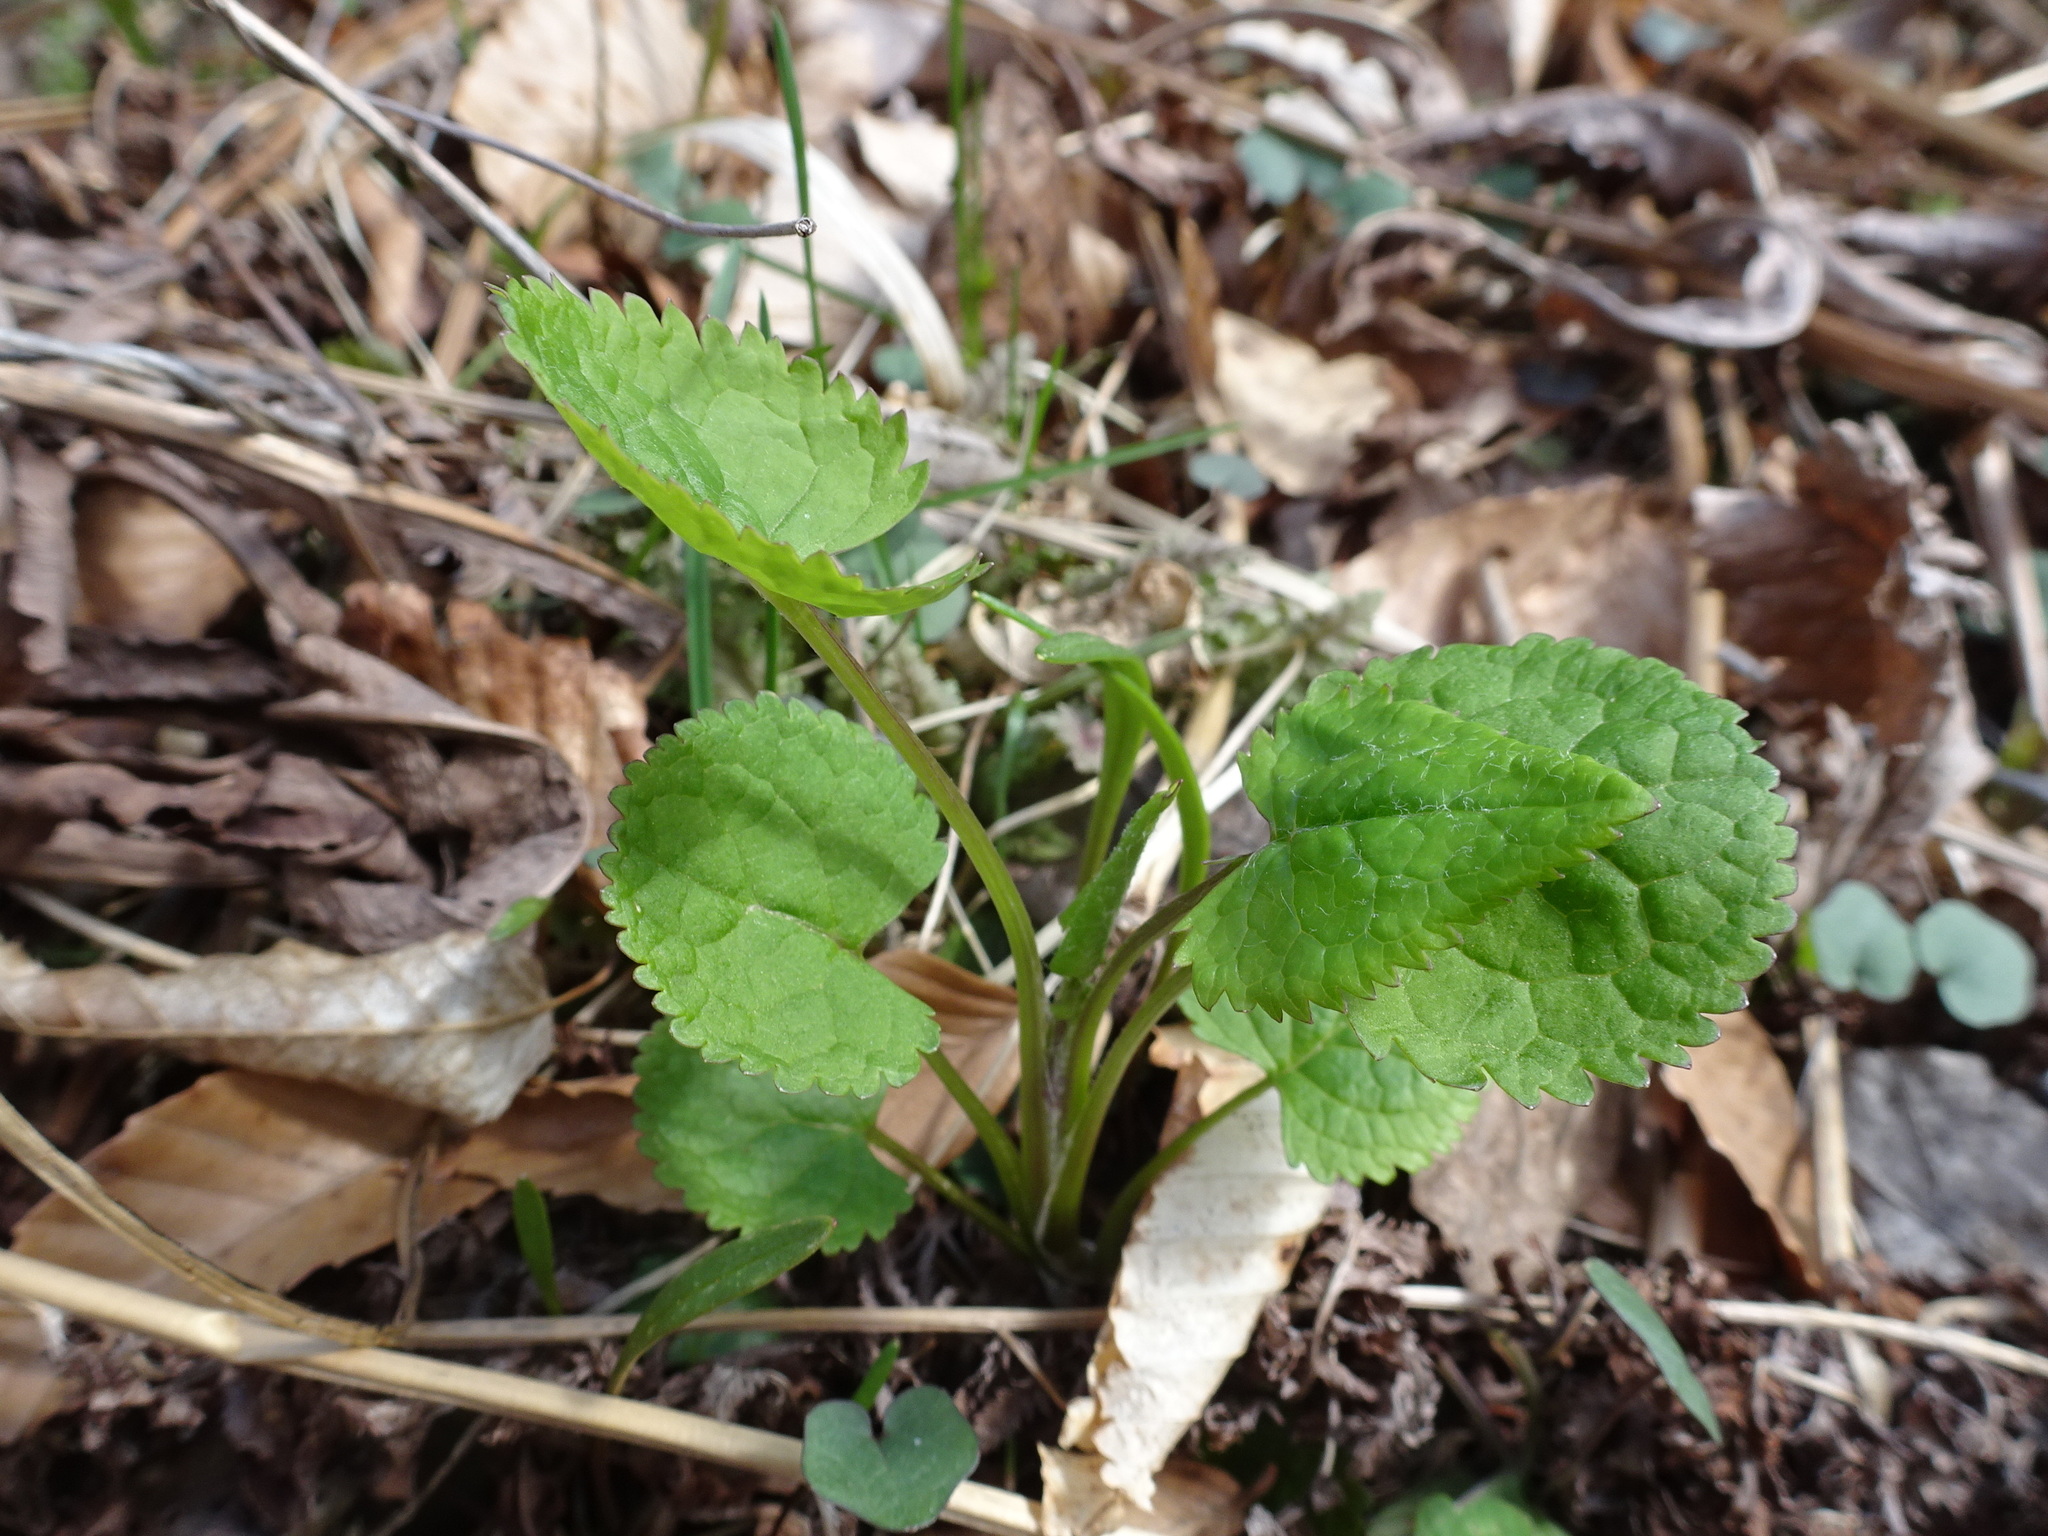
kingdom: Plantae
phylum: Tracheophyta
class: Magnoliopsida
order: Asterales
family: Asteraceae
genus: Packera
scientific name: Packera aurea
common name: Golden groundsel
